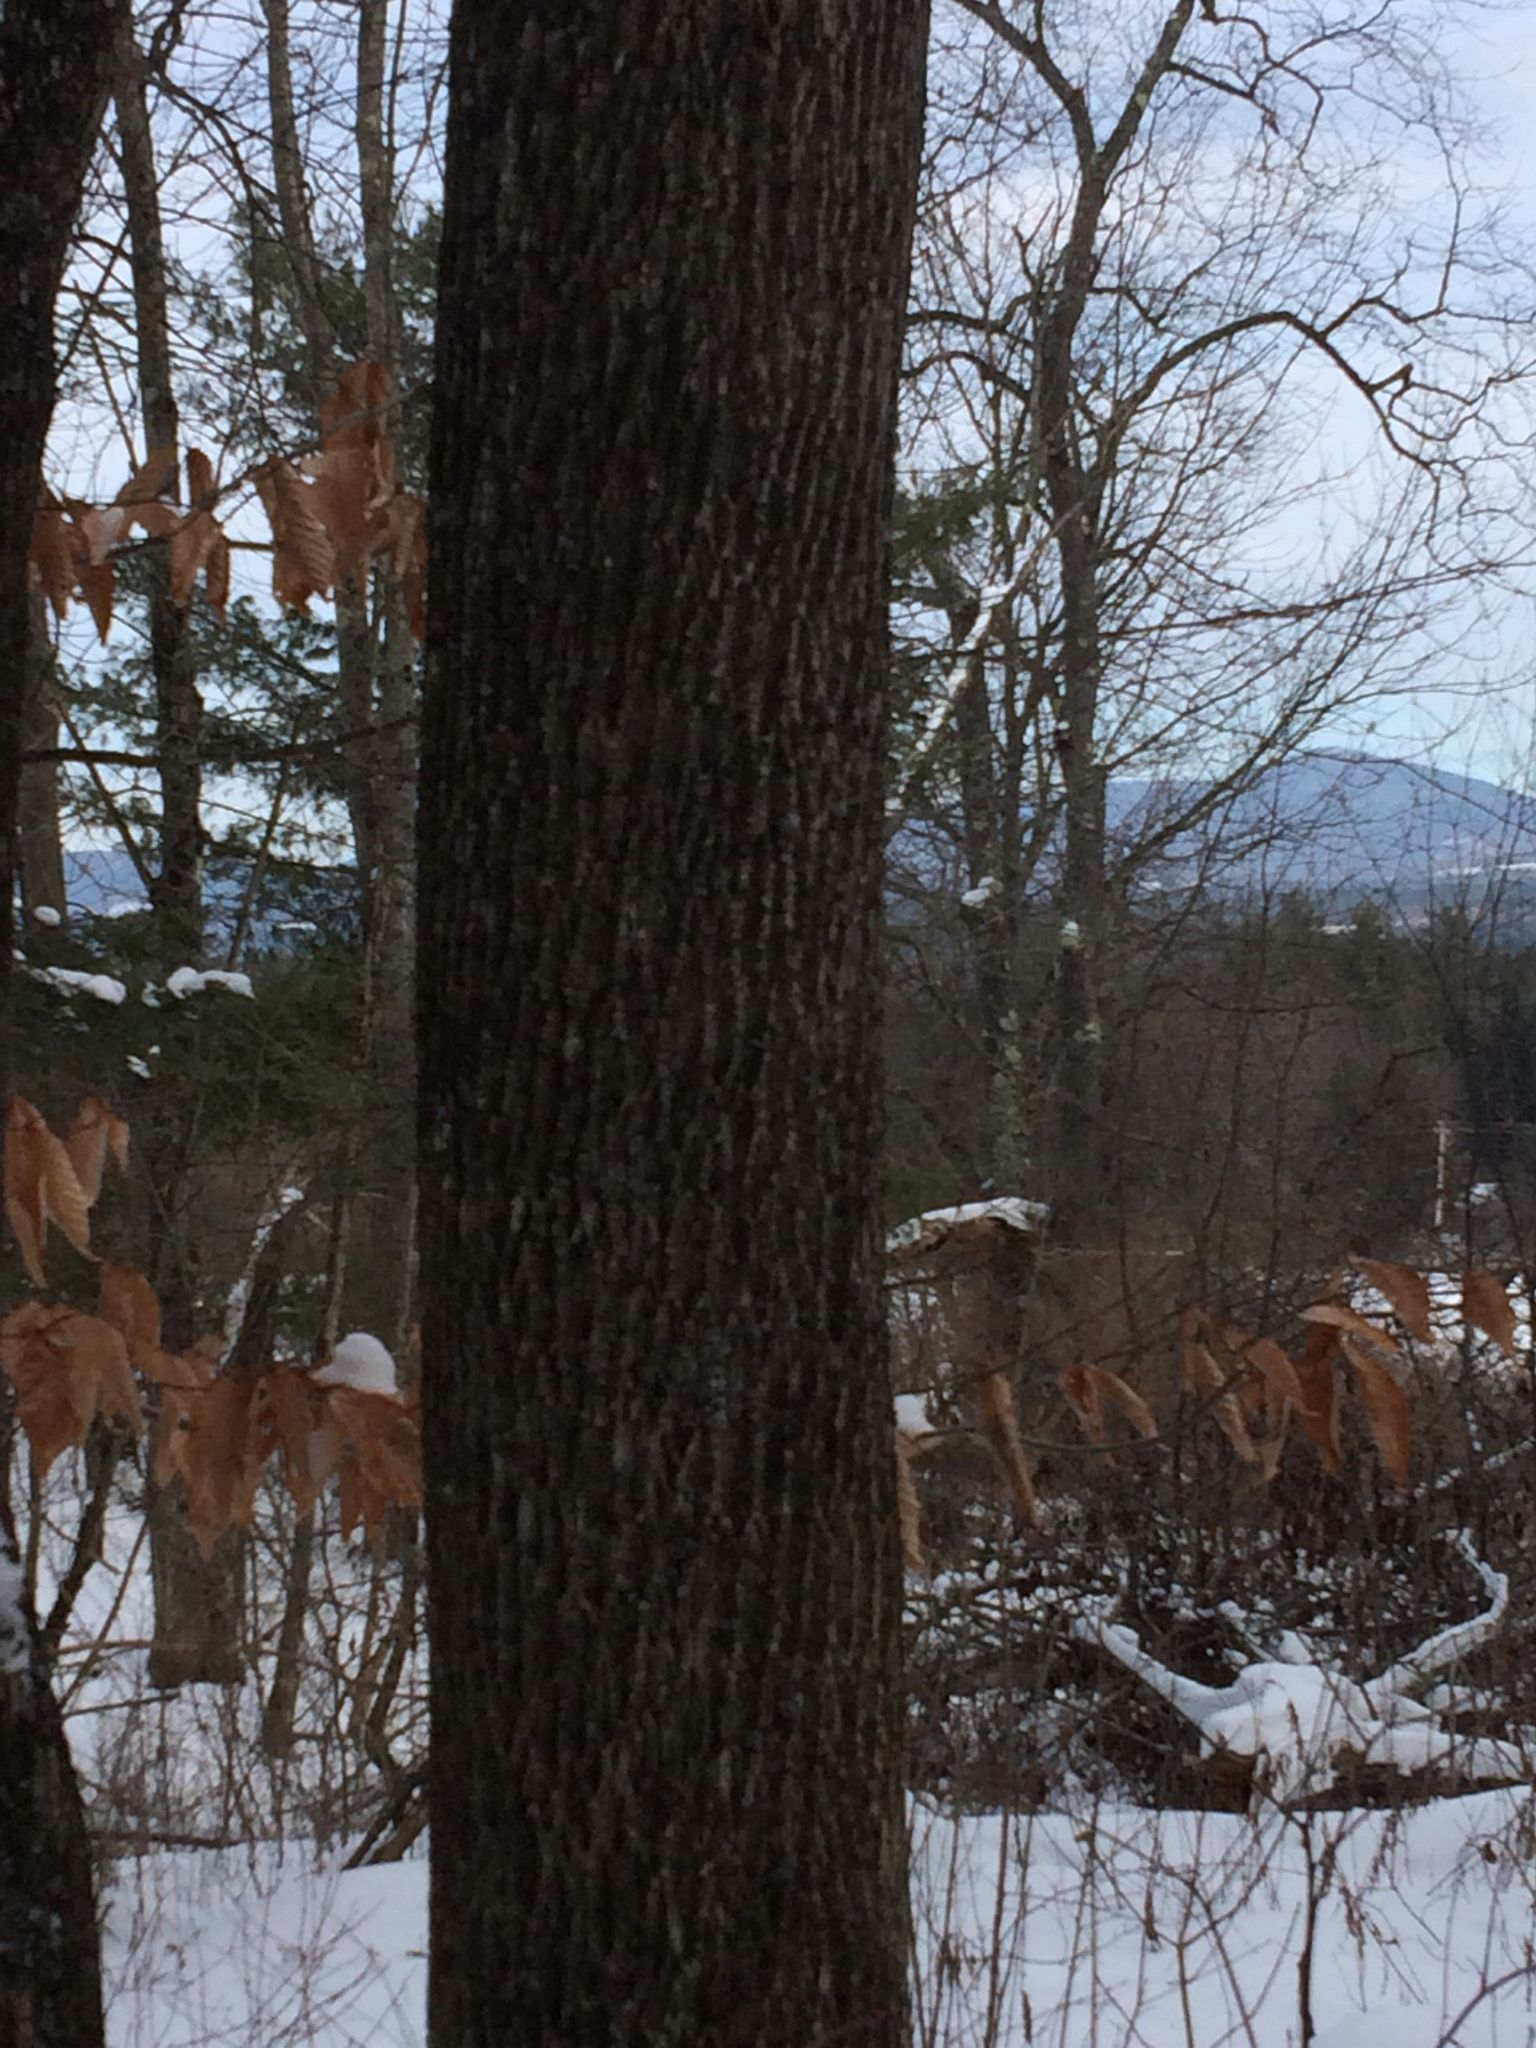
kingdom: Plantae
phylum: Tracheophyta
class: Magnoliopsida
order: Lamiales
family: Oleaceae
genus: Fraxinus
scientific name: Fraxinus americana
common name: White ash
